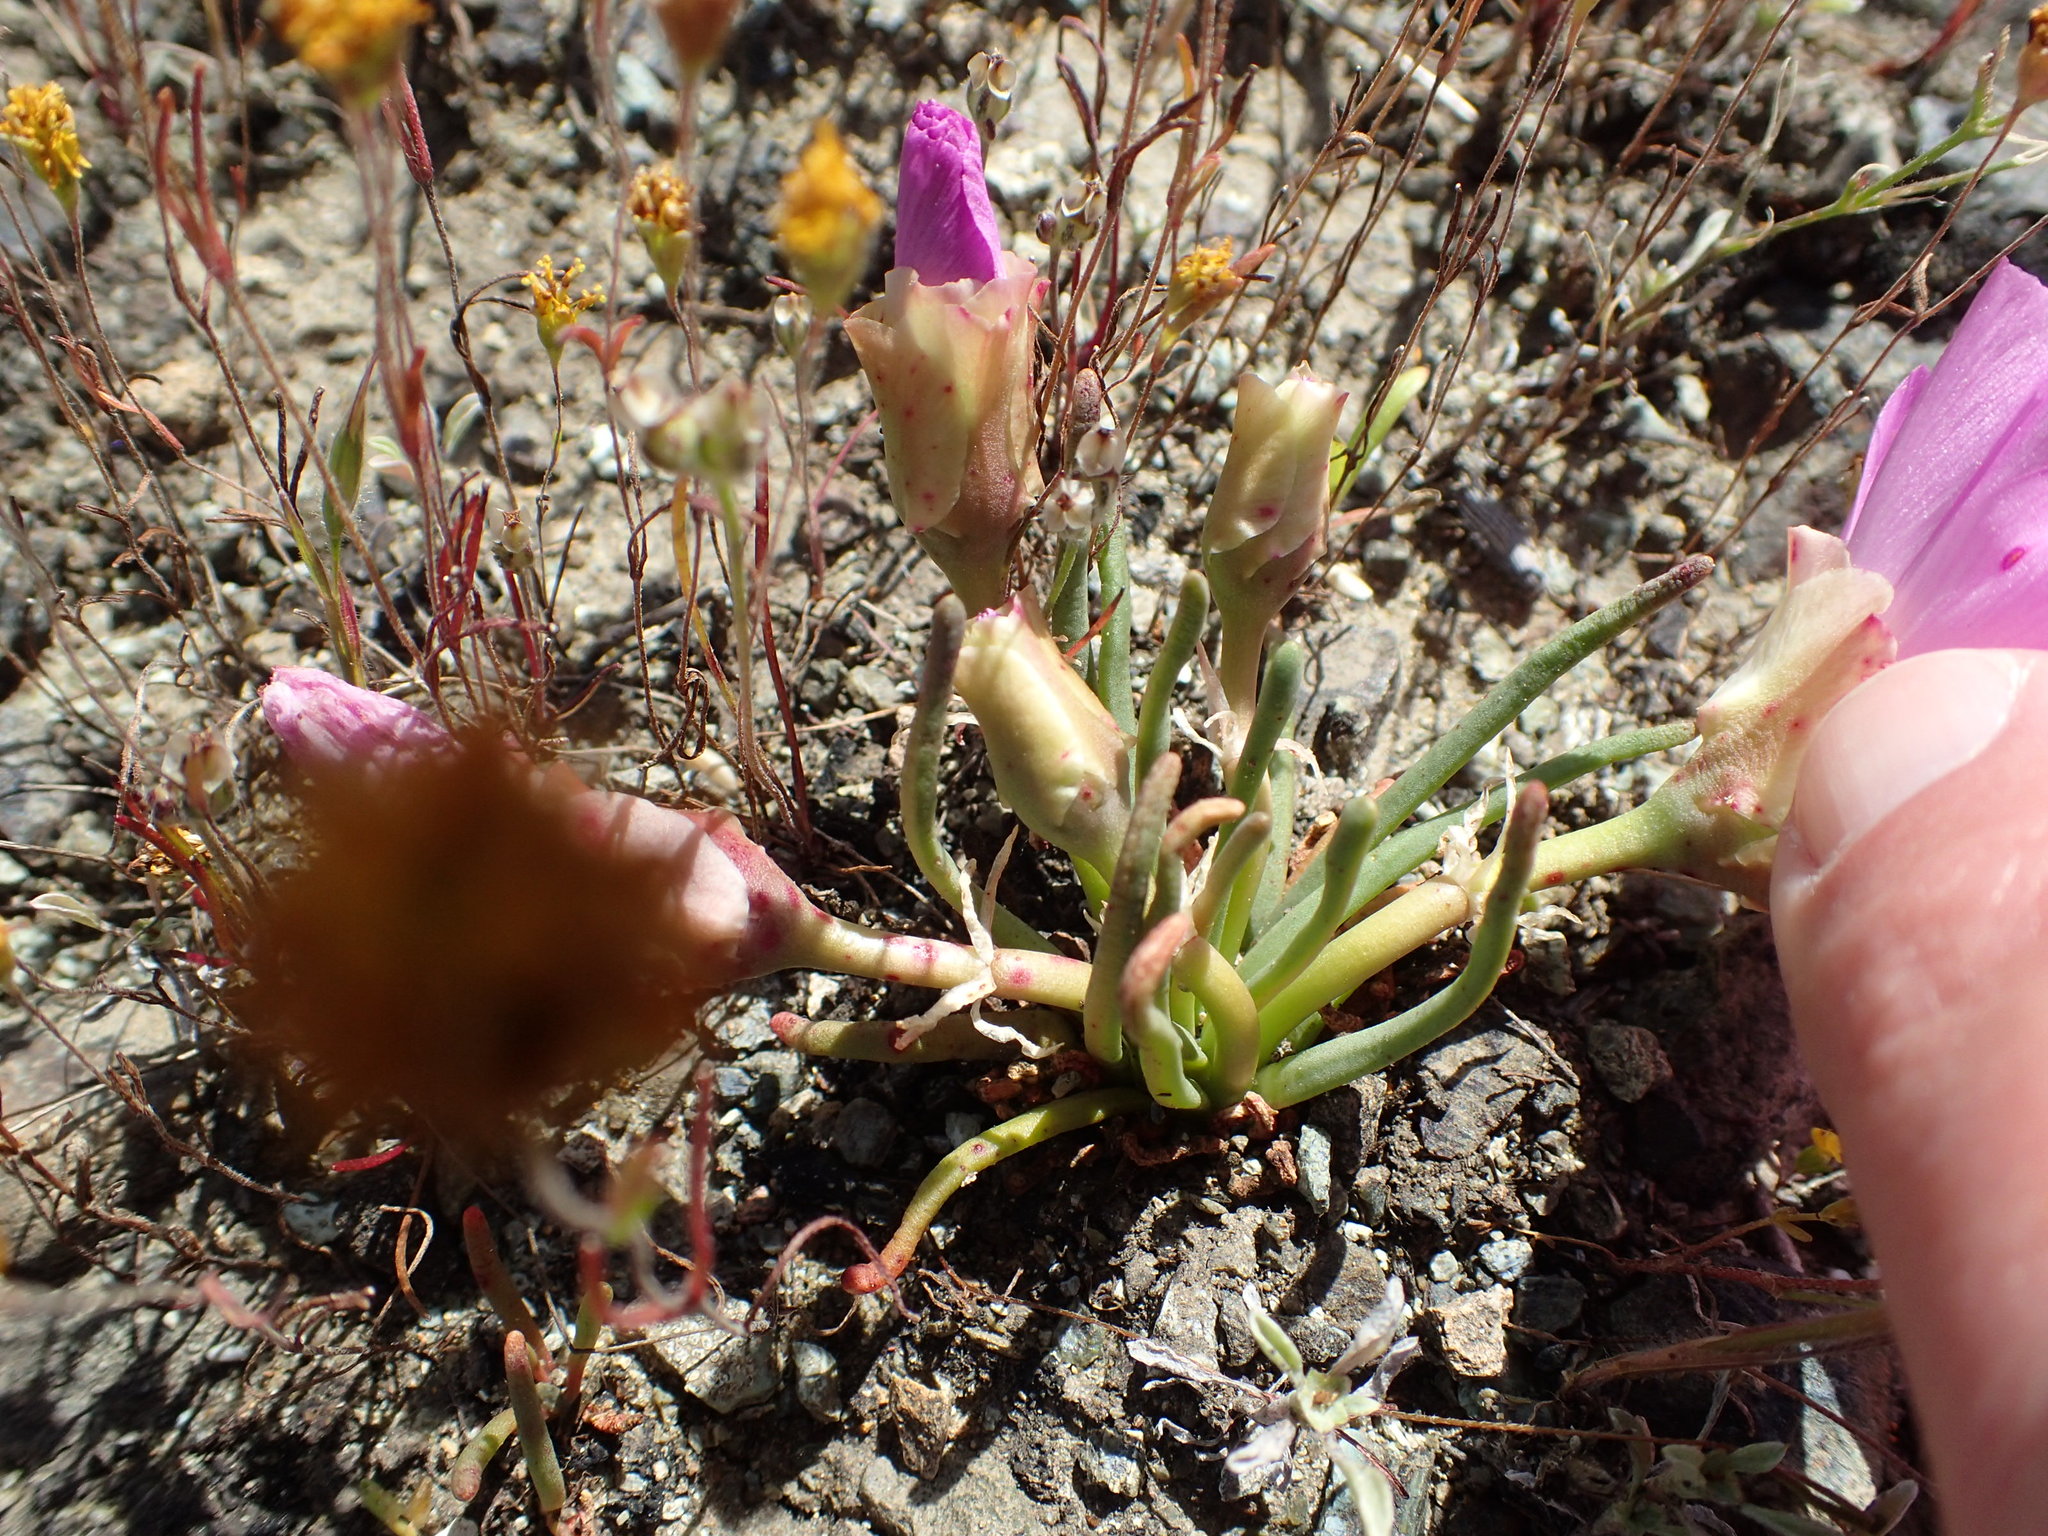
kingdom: Plantae
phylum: Tracheophyta
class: Magnoliopsida
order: Caryophyllales
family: Montiaceae
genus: Lewisia
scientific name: Lewisia rediviva
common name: Bitter-root
